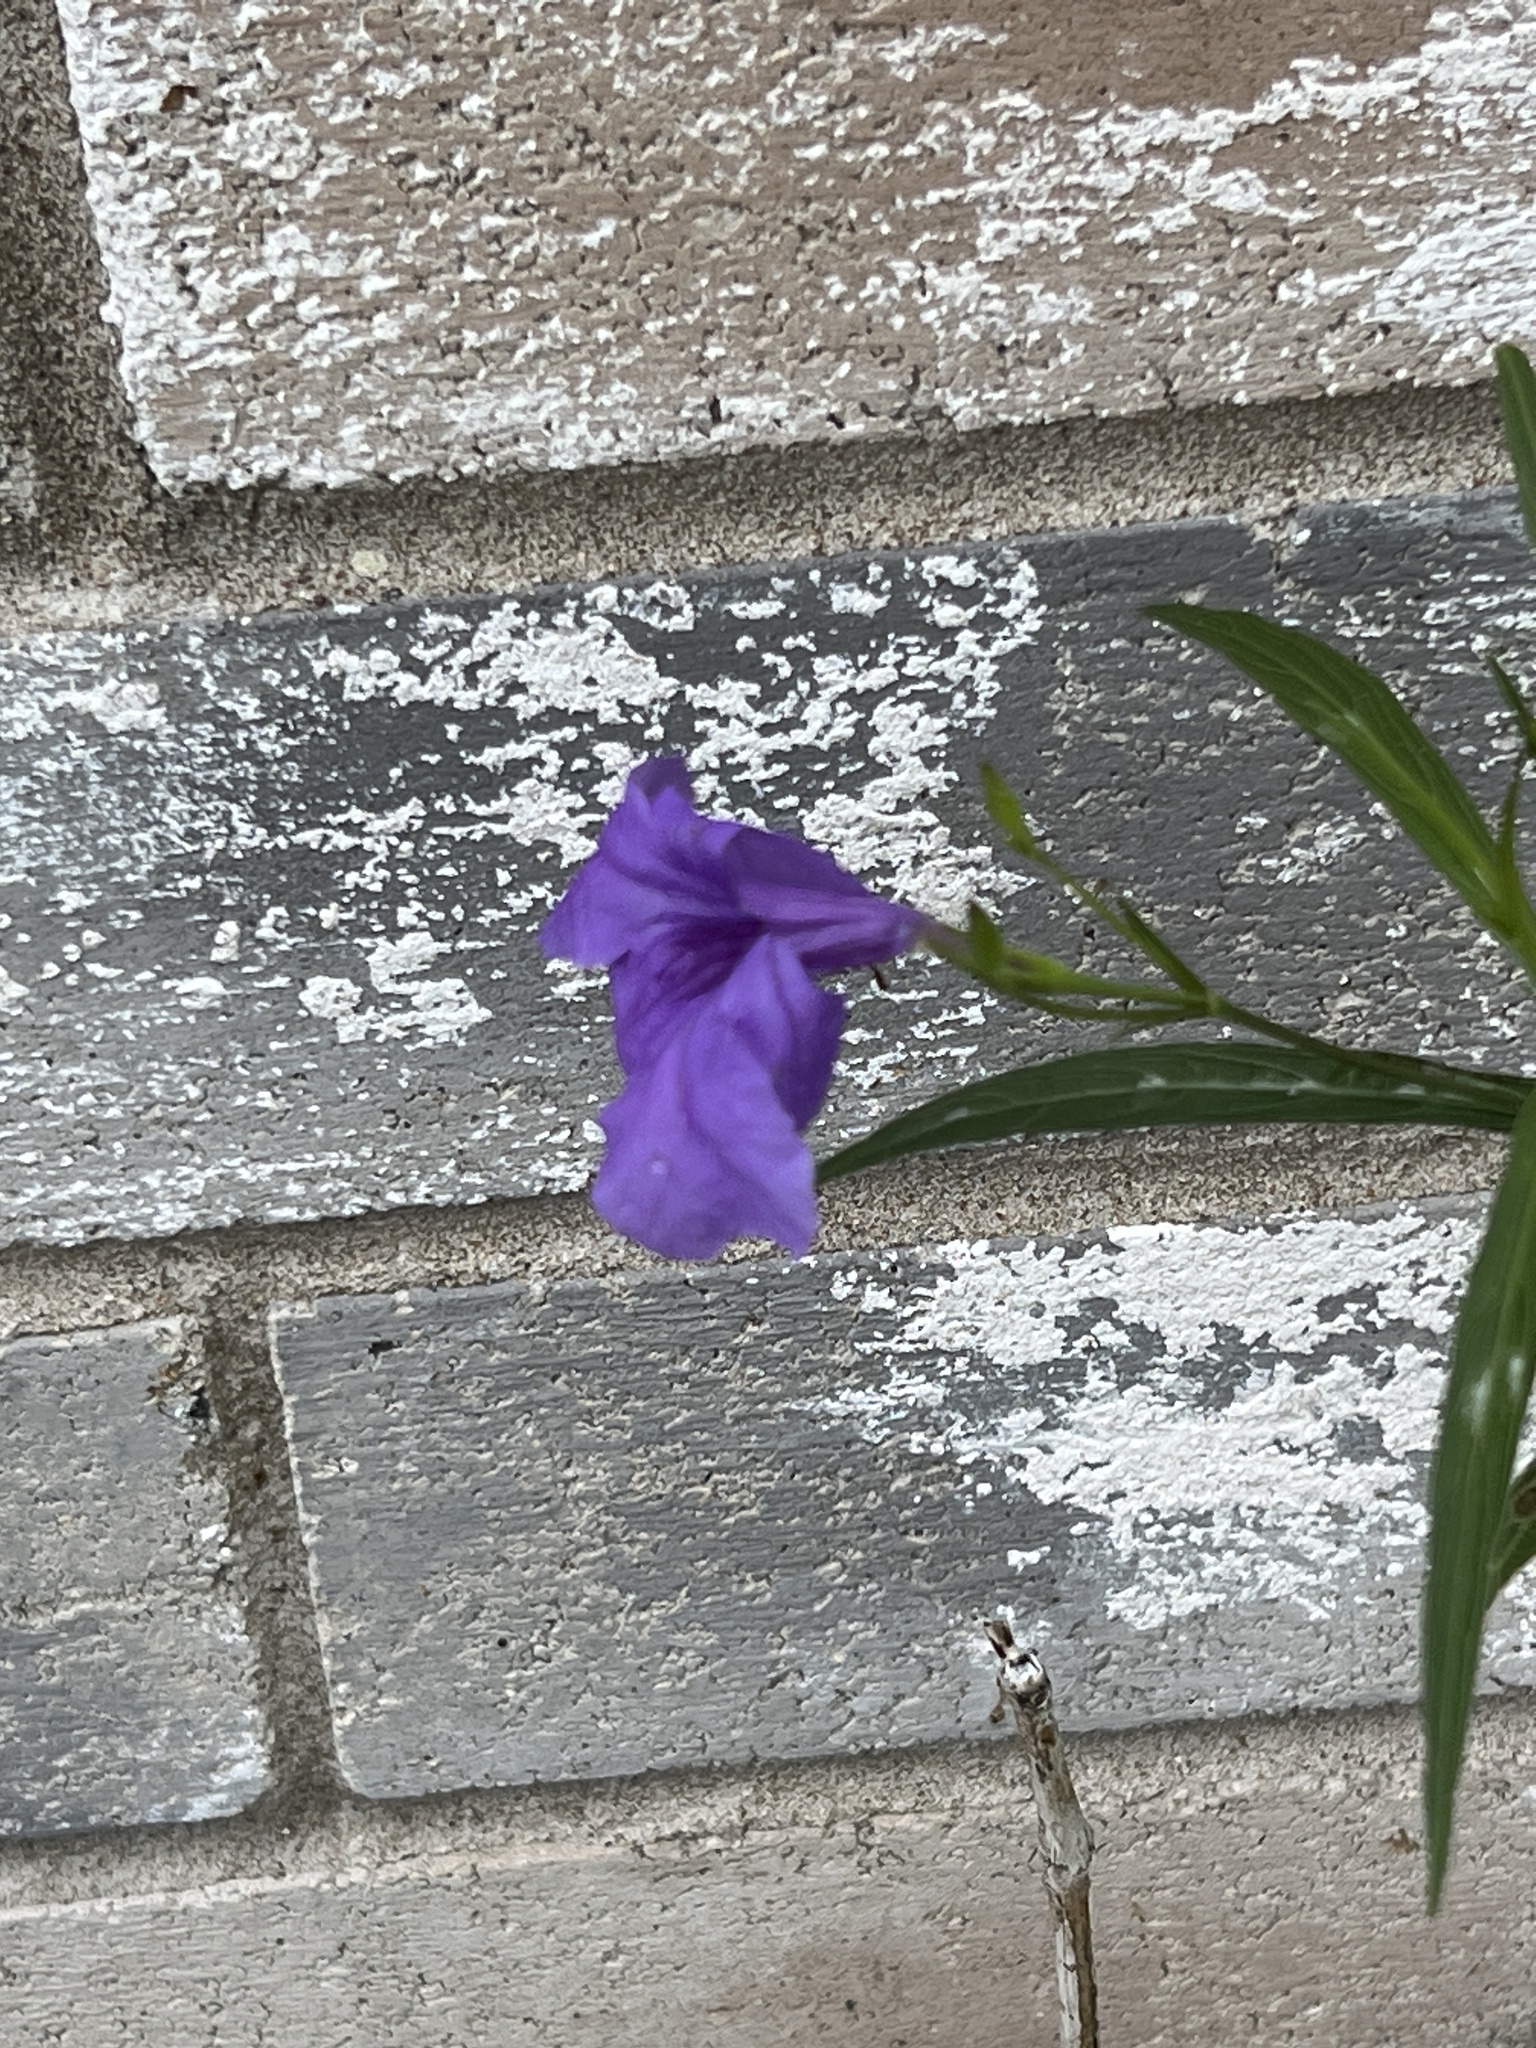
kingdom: Plantae
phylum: Tracheophyta
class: Magnoliopsida
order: Lamiales
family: Acanthaceae
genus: Ruellia
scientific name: Ruellia simplex
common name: Softseed wild petunia
